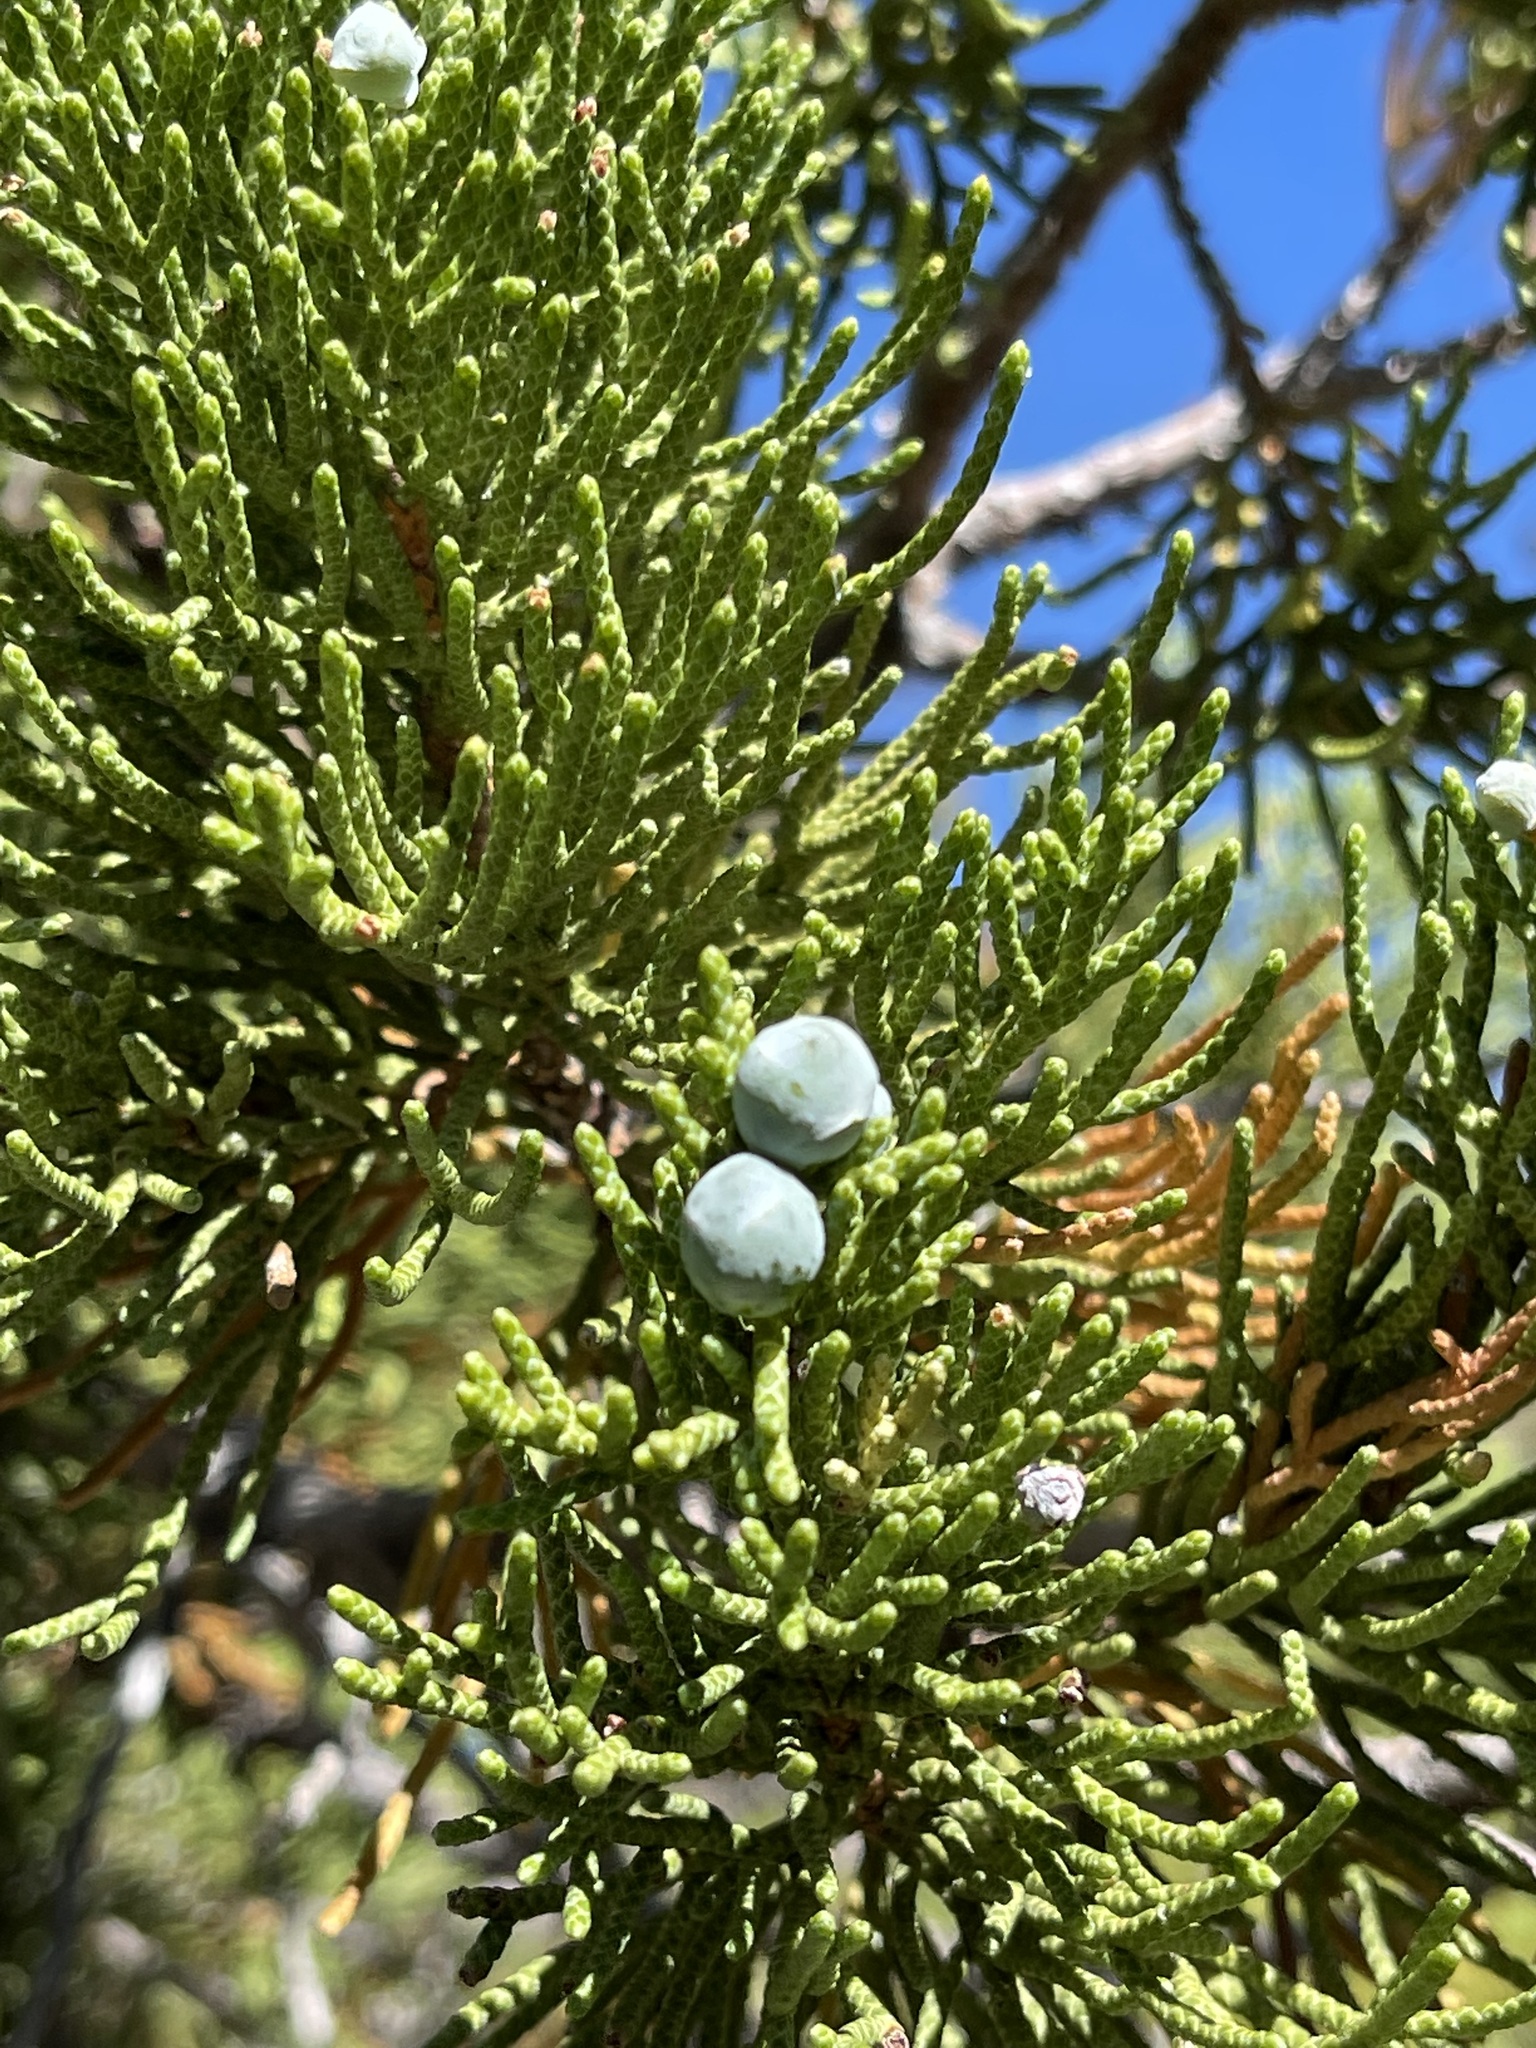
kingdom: Plantae
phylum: Tracheophyta
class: Pinopsida
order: Pinales
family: Cupressaceae
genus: Juniperus
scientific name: Juniperus occidentalis
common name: Western juniper
